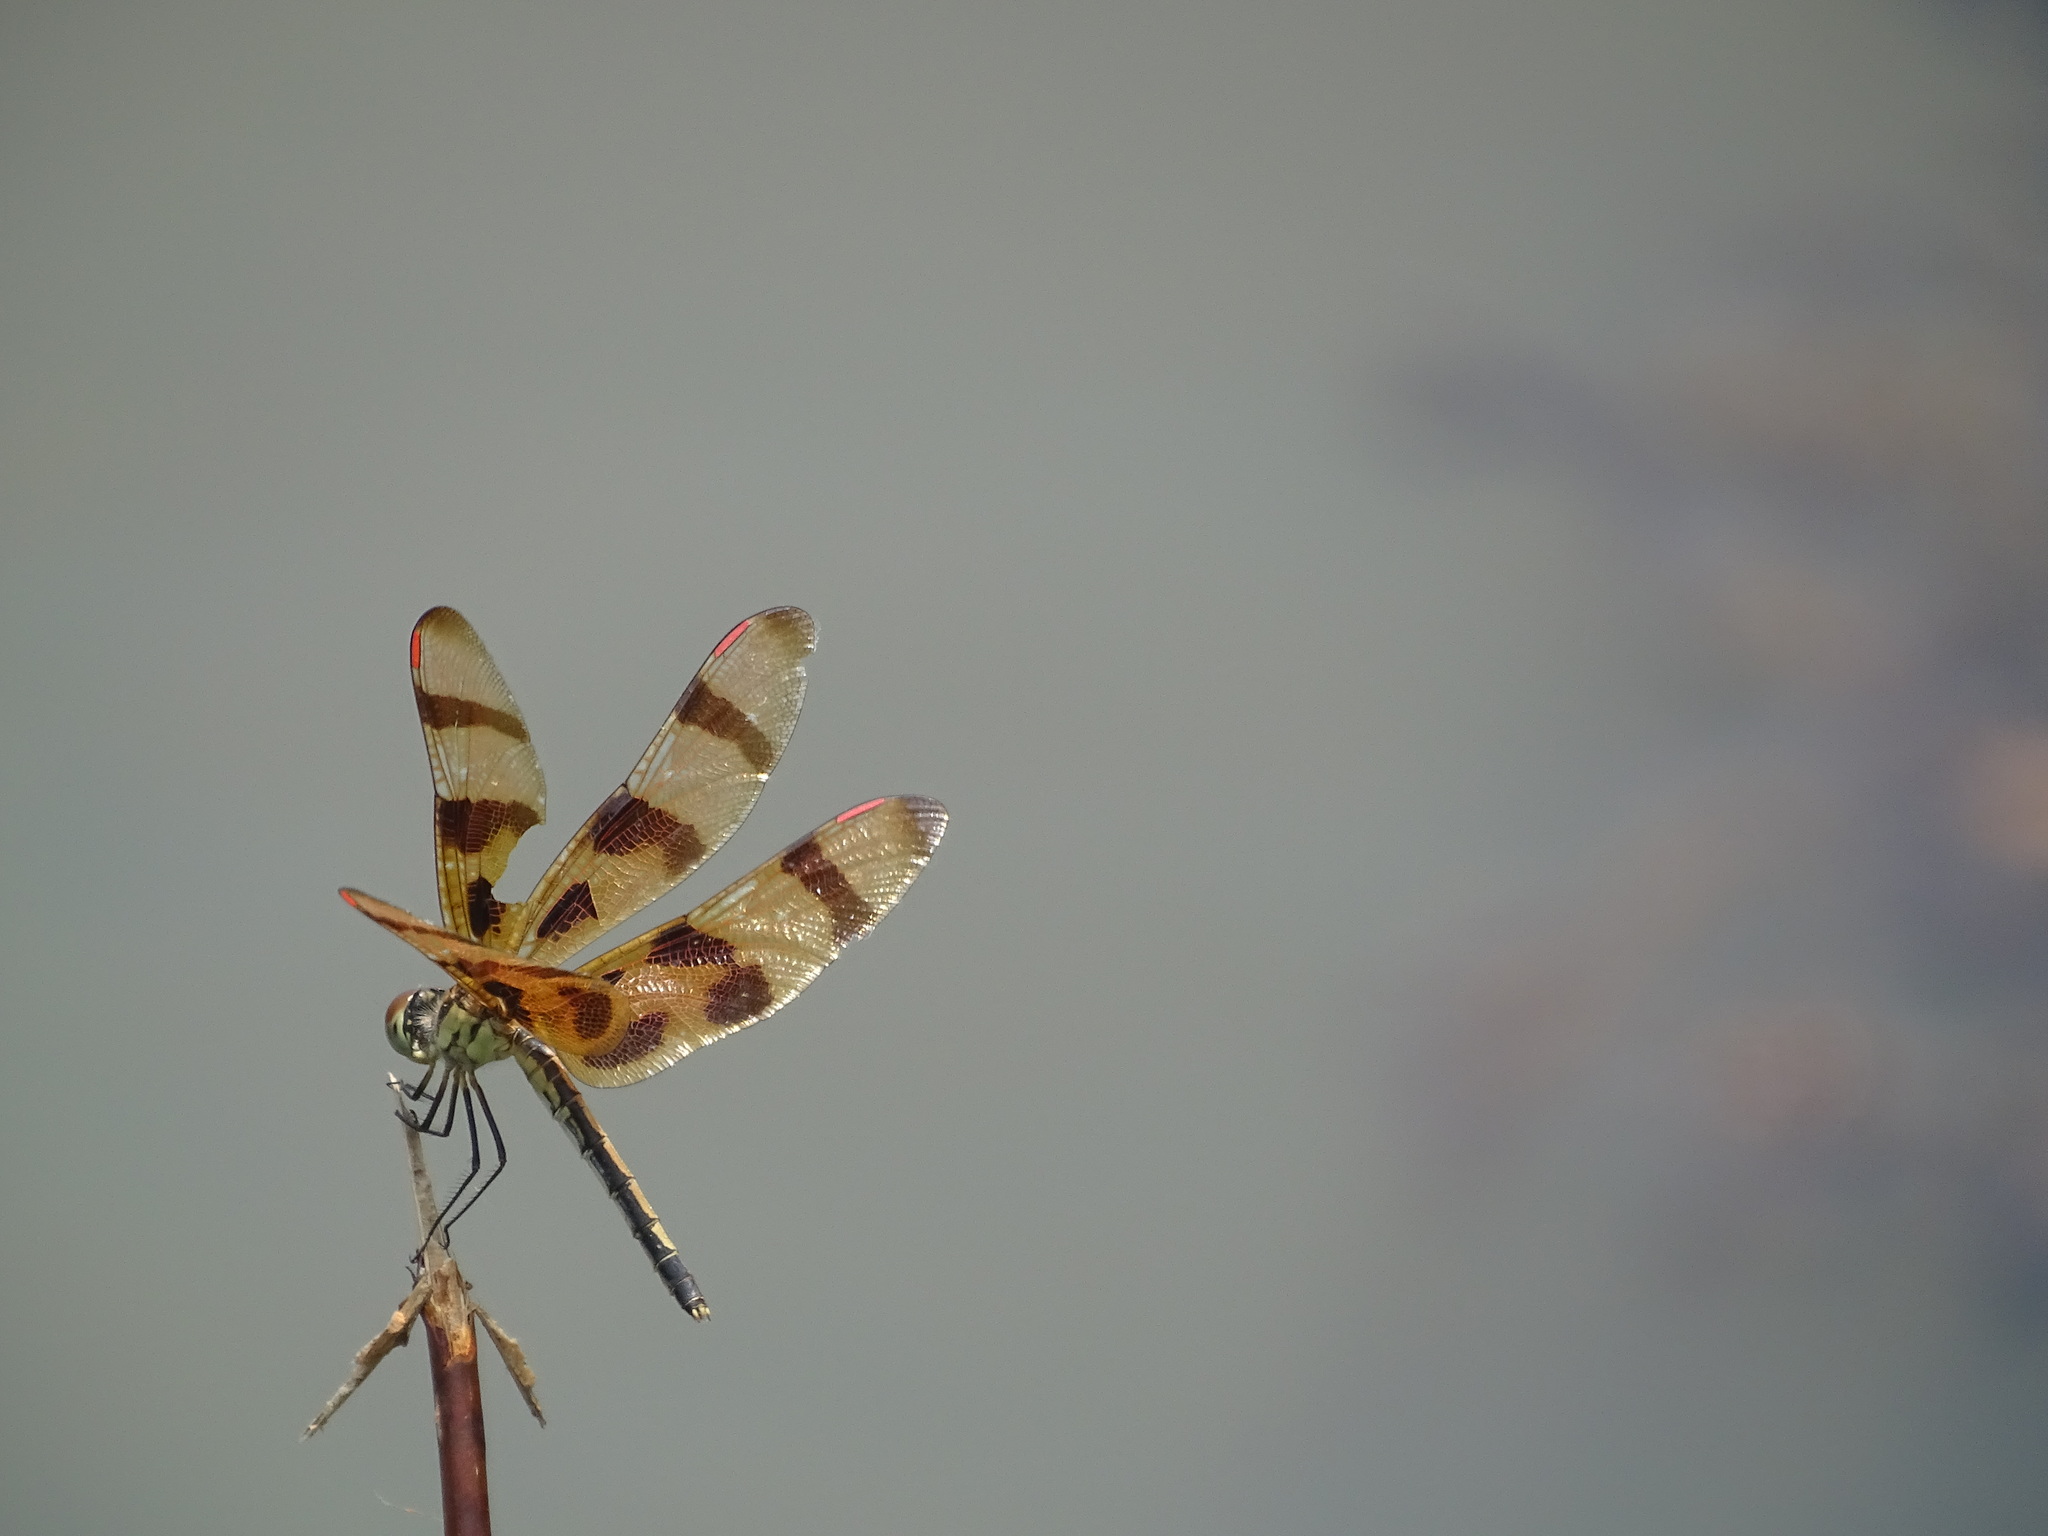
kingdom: Animalia
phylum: Arthropoda
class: Insecta
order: Odonata
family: Libellulidae
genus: Celithemis
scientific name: Celithemis eponina
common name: Halloween pennant
